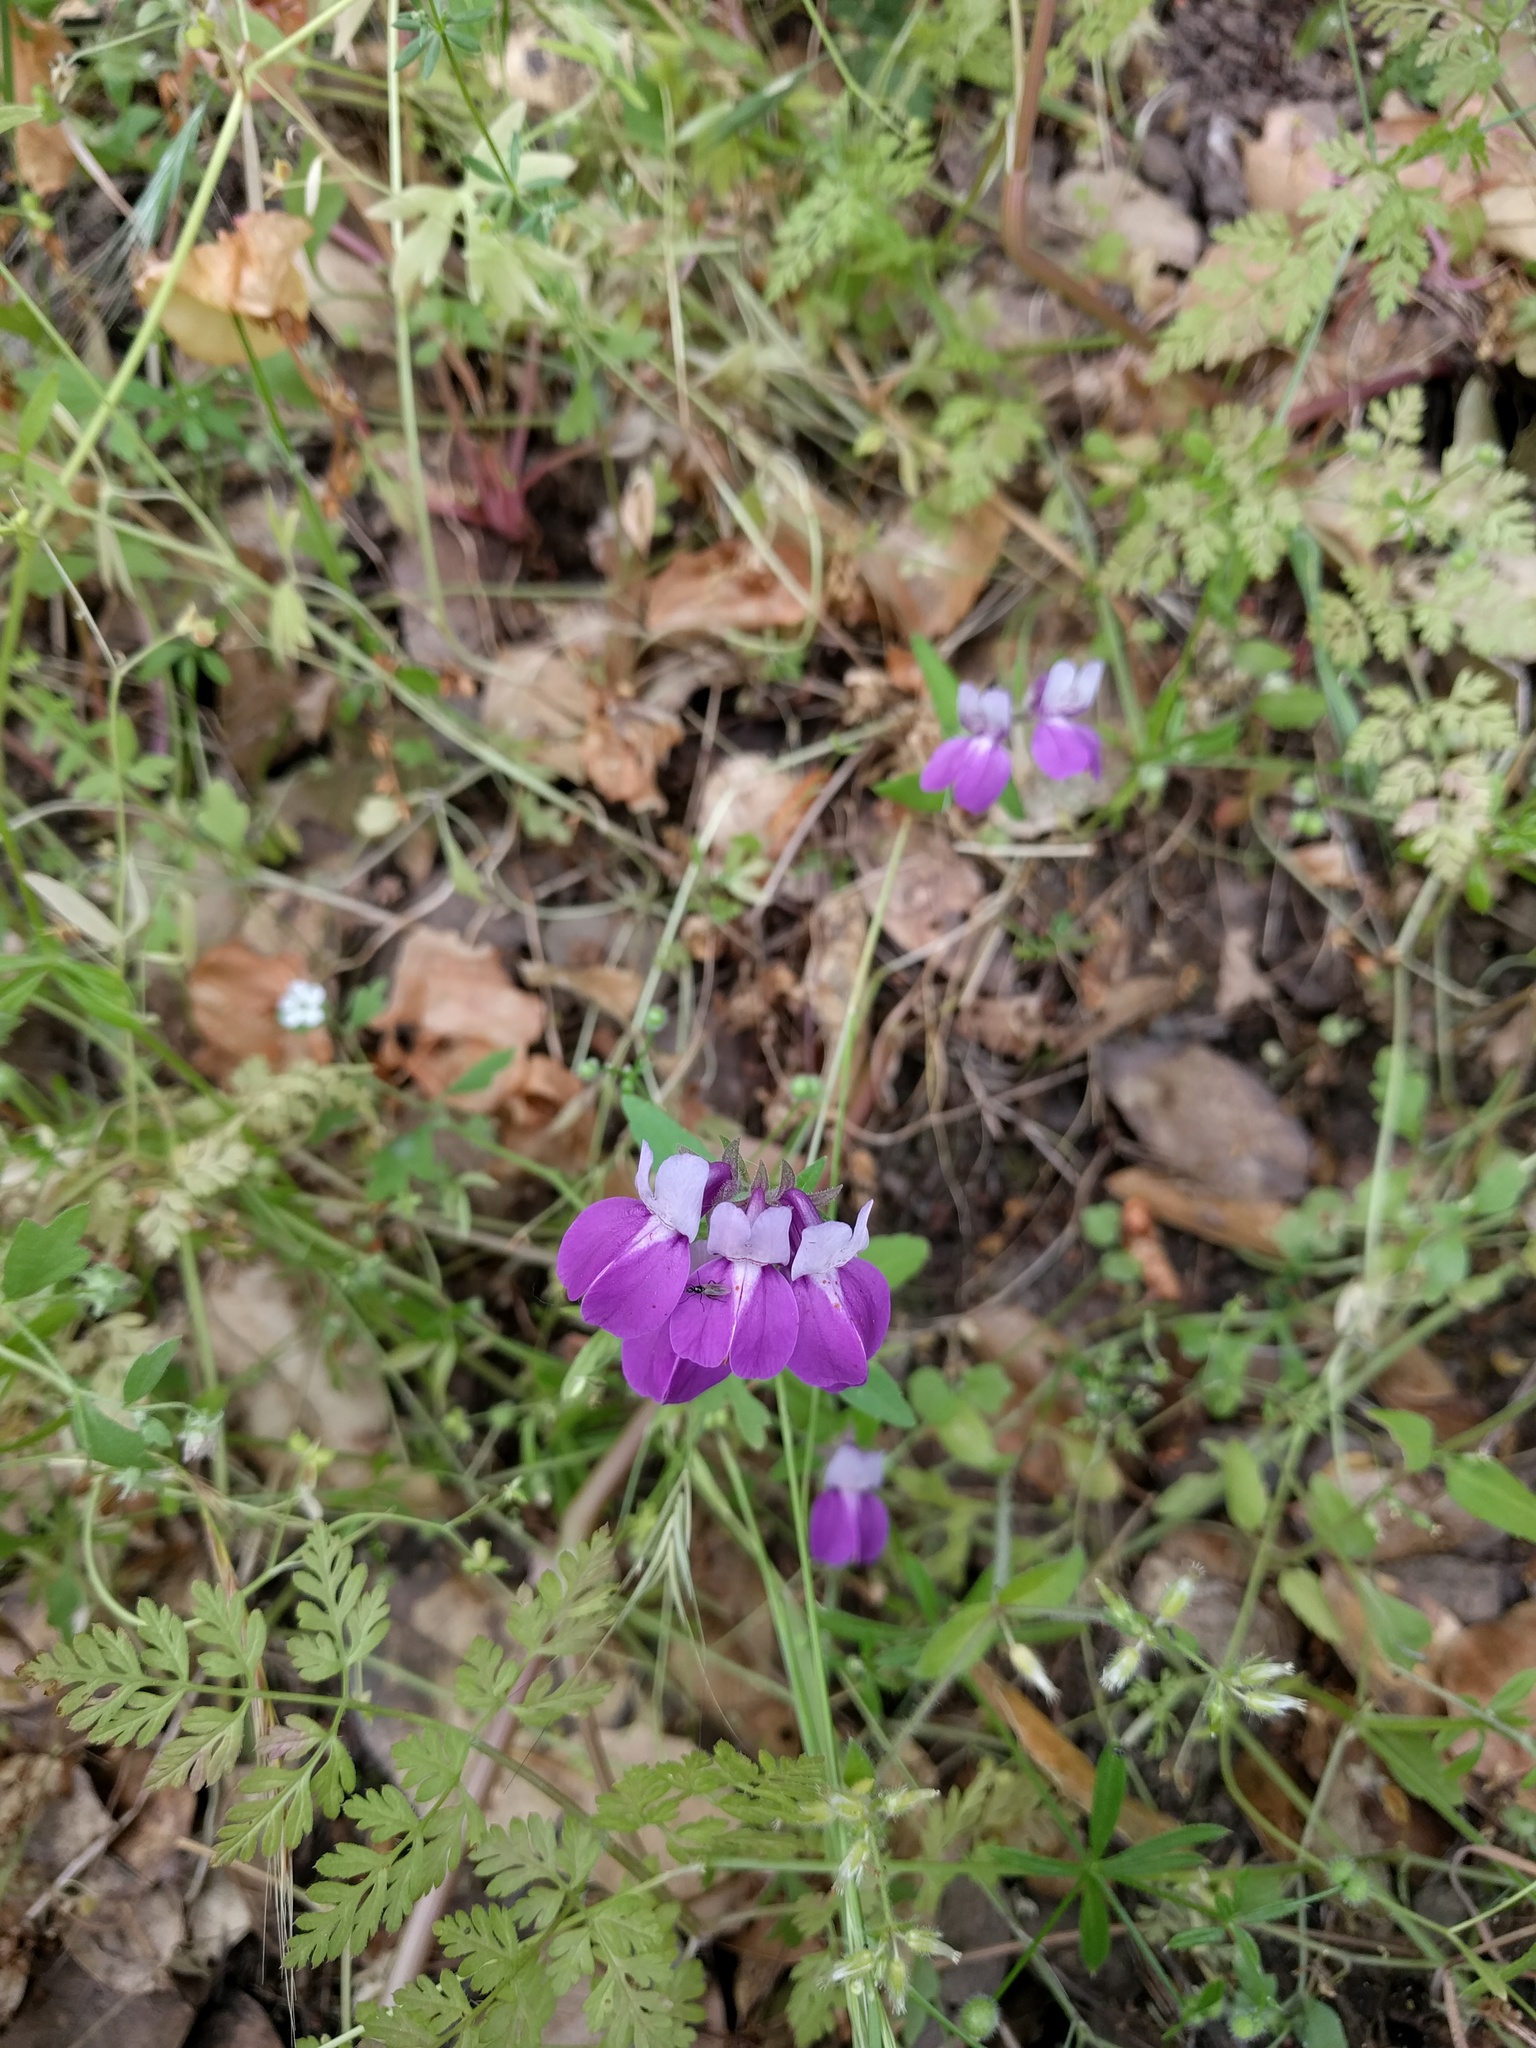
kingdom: Plantae
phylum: Tracheophyta
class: Magnoliopsida
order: Lamiales
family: Plantaginaceae
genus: Collinsia
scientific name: Collinsia heterophylla
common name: Chinese-houses
